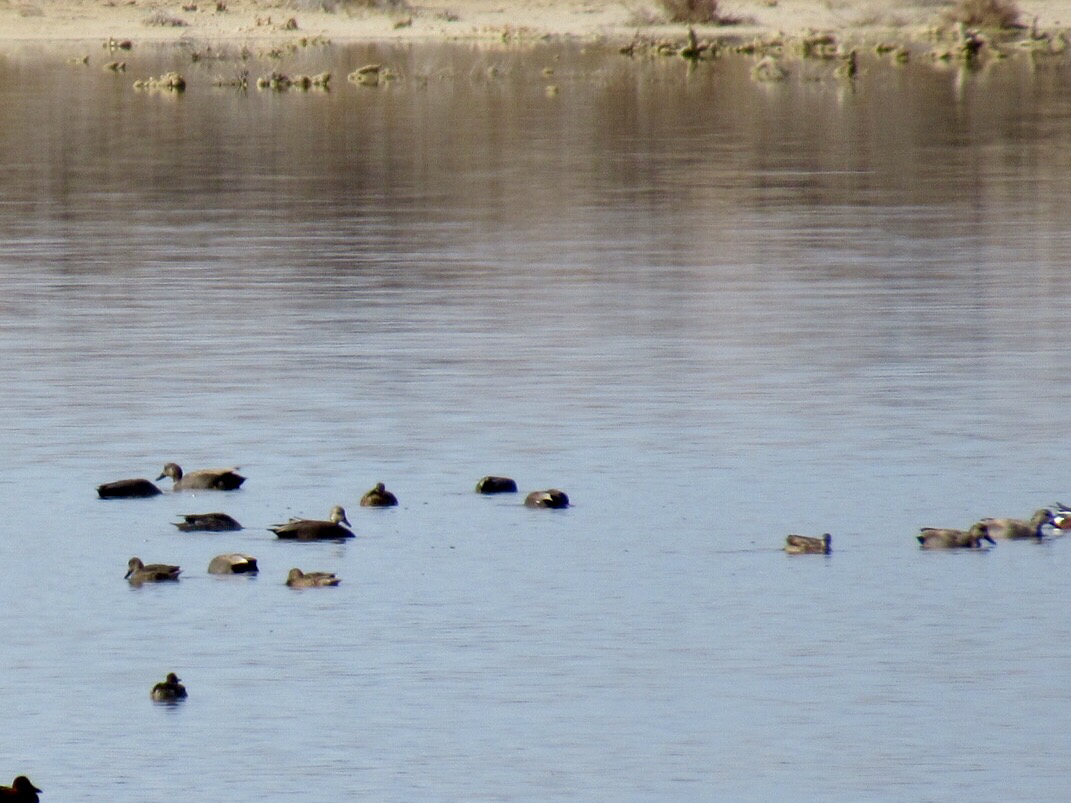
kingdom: Animalia
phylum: Chordata
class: Aves
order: Anseriformes
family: Anatidae
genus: Mareca
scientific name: Mareca strepera
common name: Gadwall
